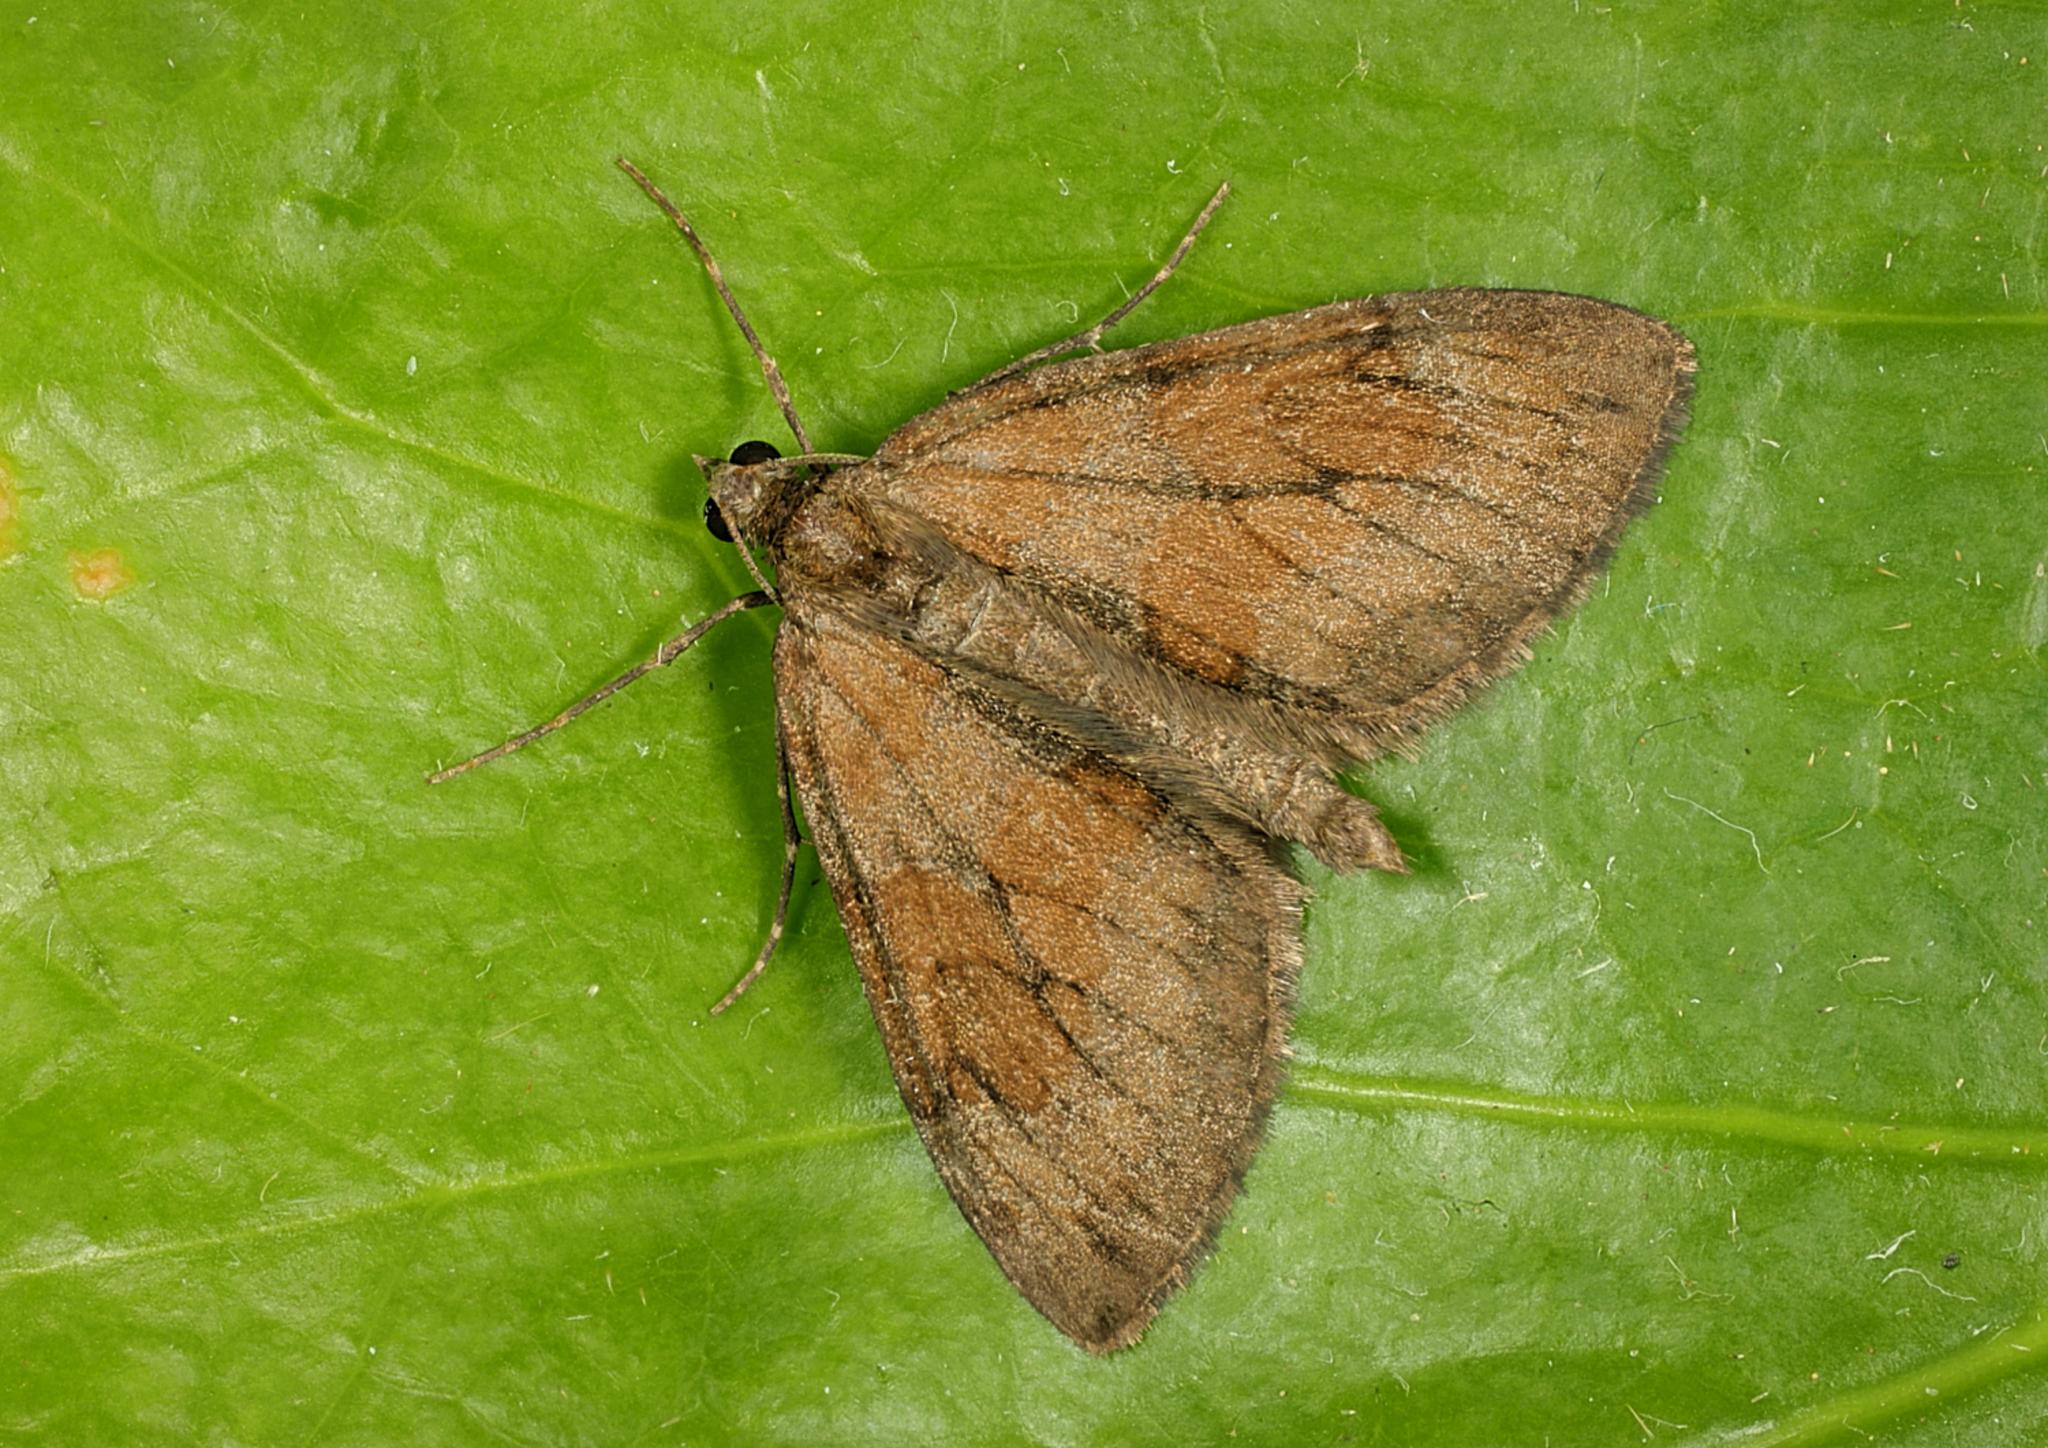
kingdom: Animalia
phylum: Arthropoda
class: Insecta
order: Lepidoptera
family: Geometridae
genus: Thera
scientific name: Thera obeliscata
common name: Grey pine carpet
